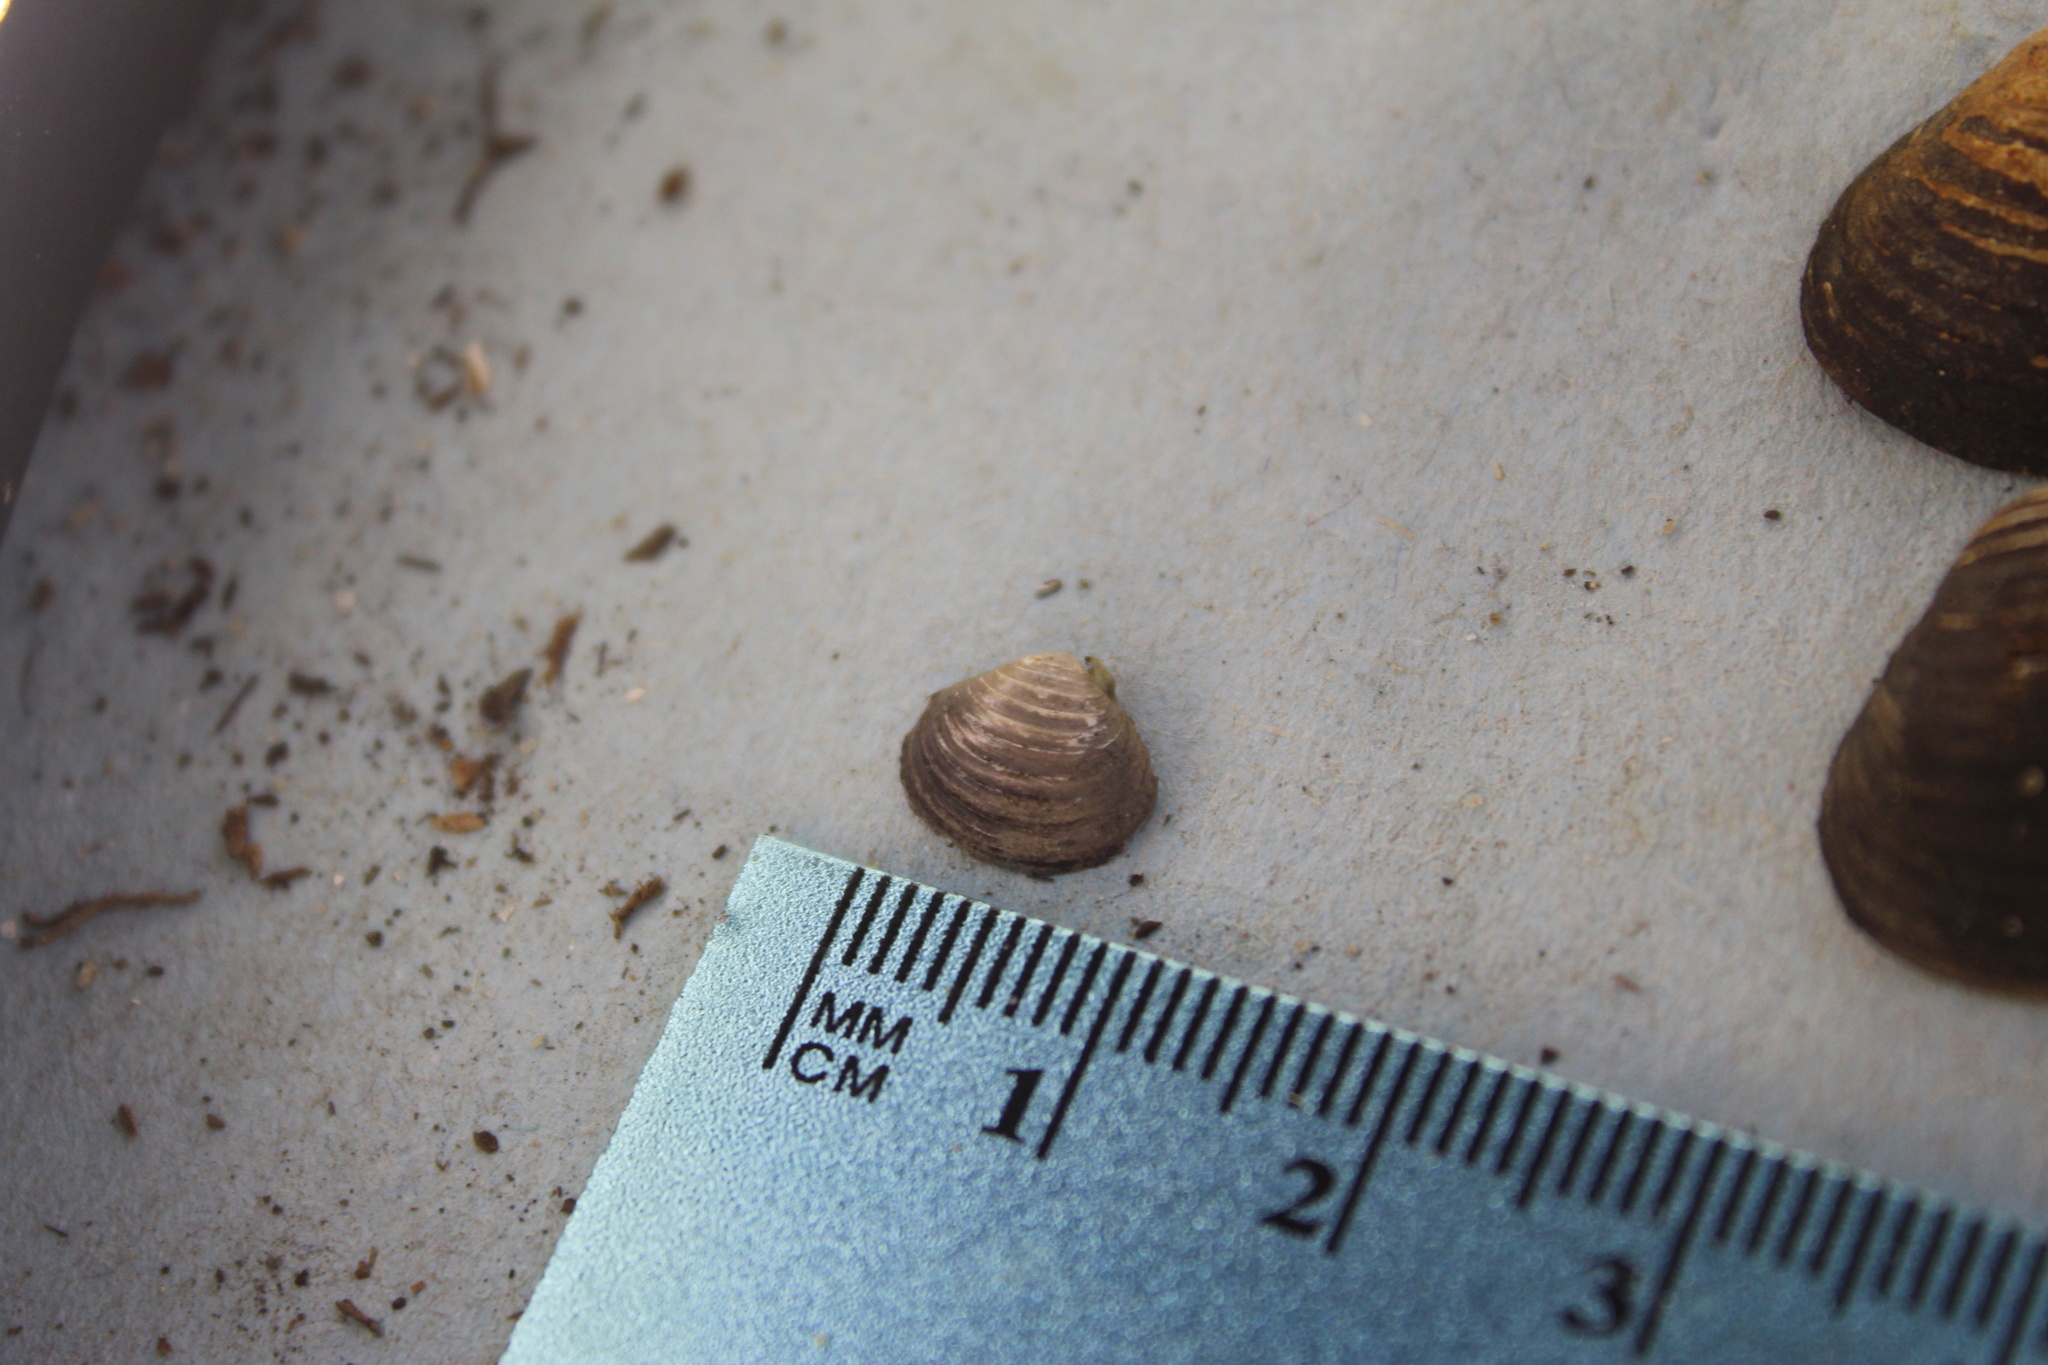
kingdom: Animalia
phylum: Mollusca
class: Bivalvia
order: Venerida
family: Cyrenidae
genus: Corbicula
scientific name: Corbicula fluminea
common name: Asian clam
